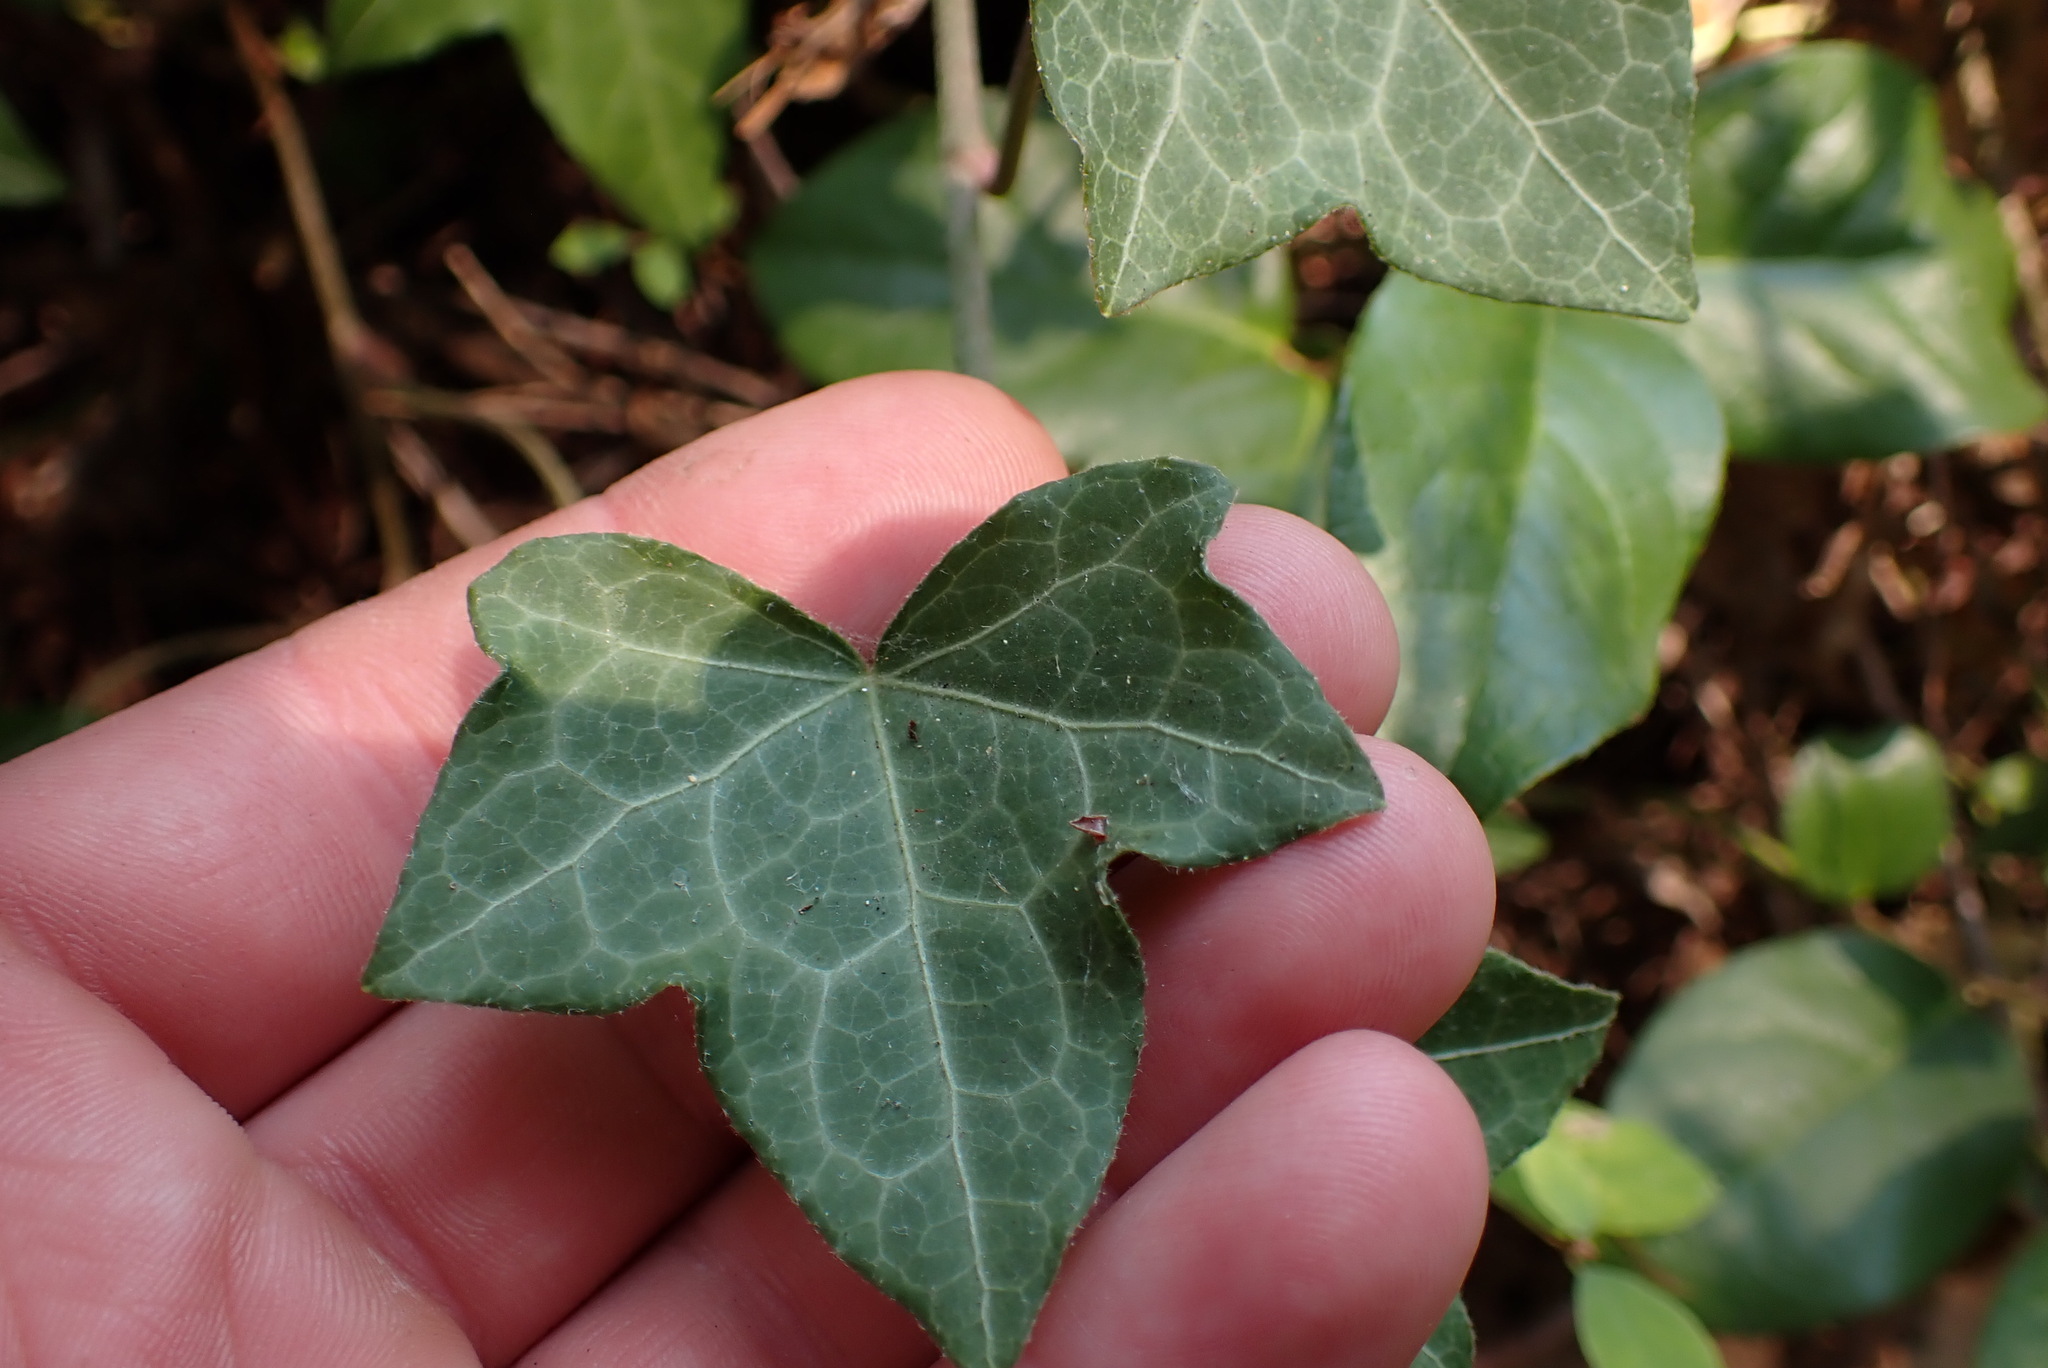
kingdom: Plantae
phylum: Tracheophyta
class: Magnoliopsida
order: Apiales
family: Araliaceae
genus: Hedera
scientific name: Hedera helix
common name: Ivy
